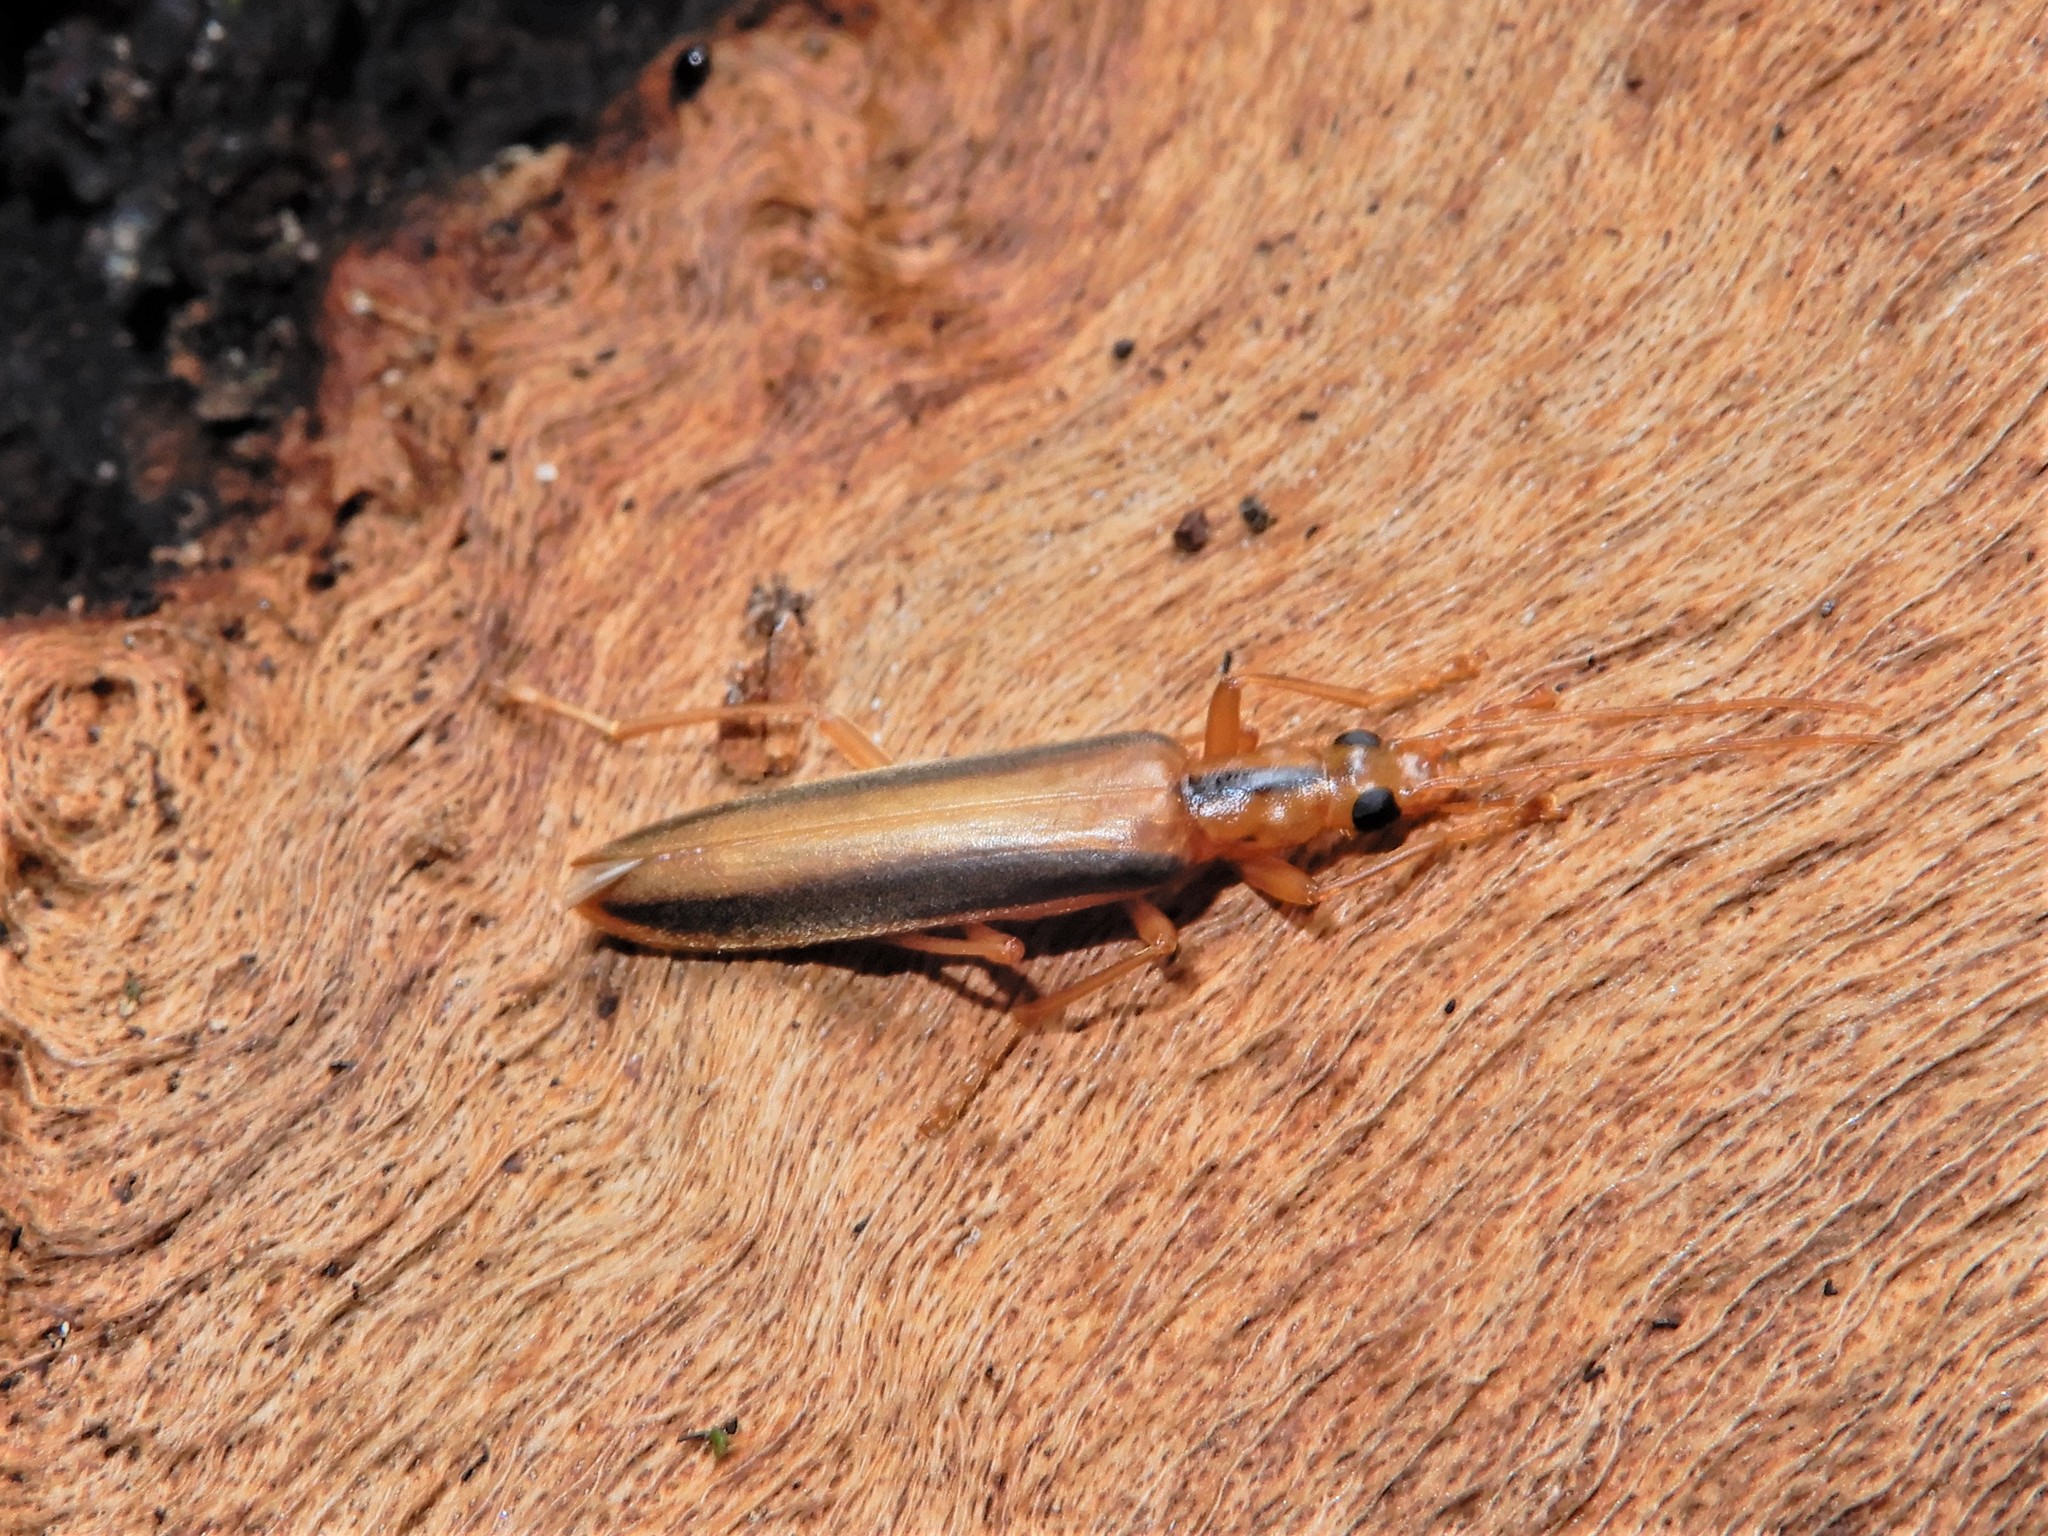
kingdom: Animalia
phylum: Arthropoda
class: Insecta
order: Coleoptera
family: Oedemeridae
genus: Thelyphassa
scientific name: Thelyphassa
